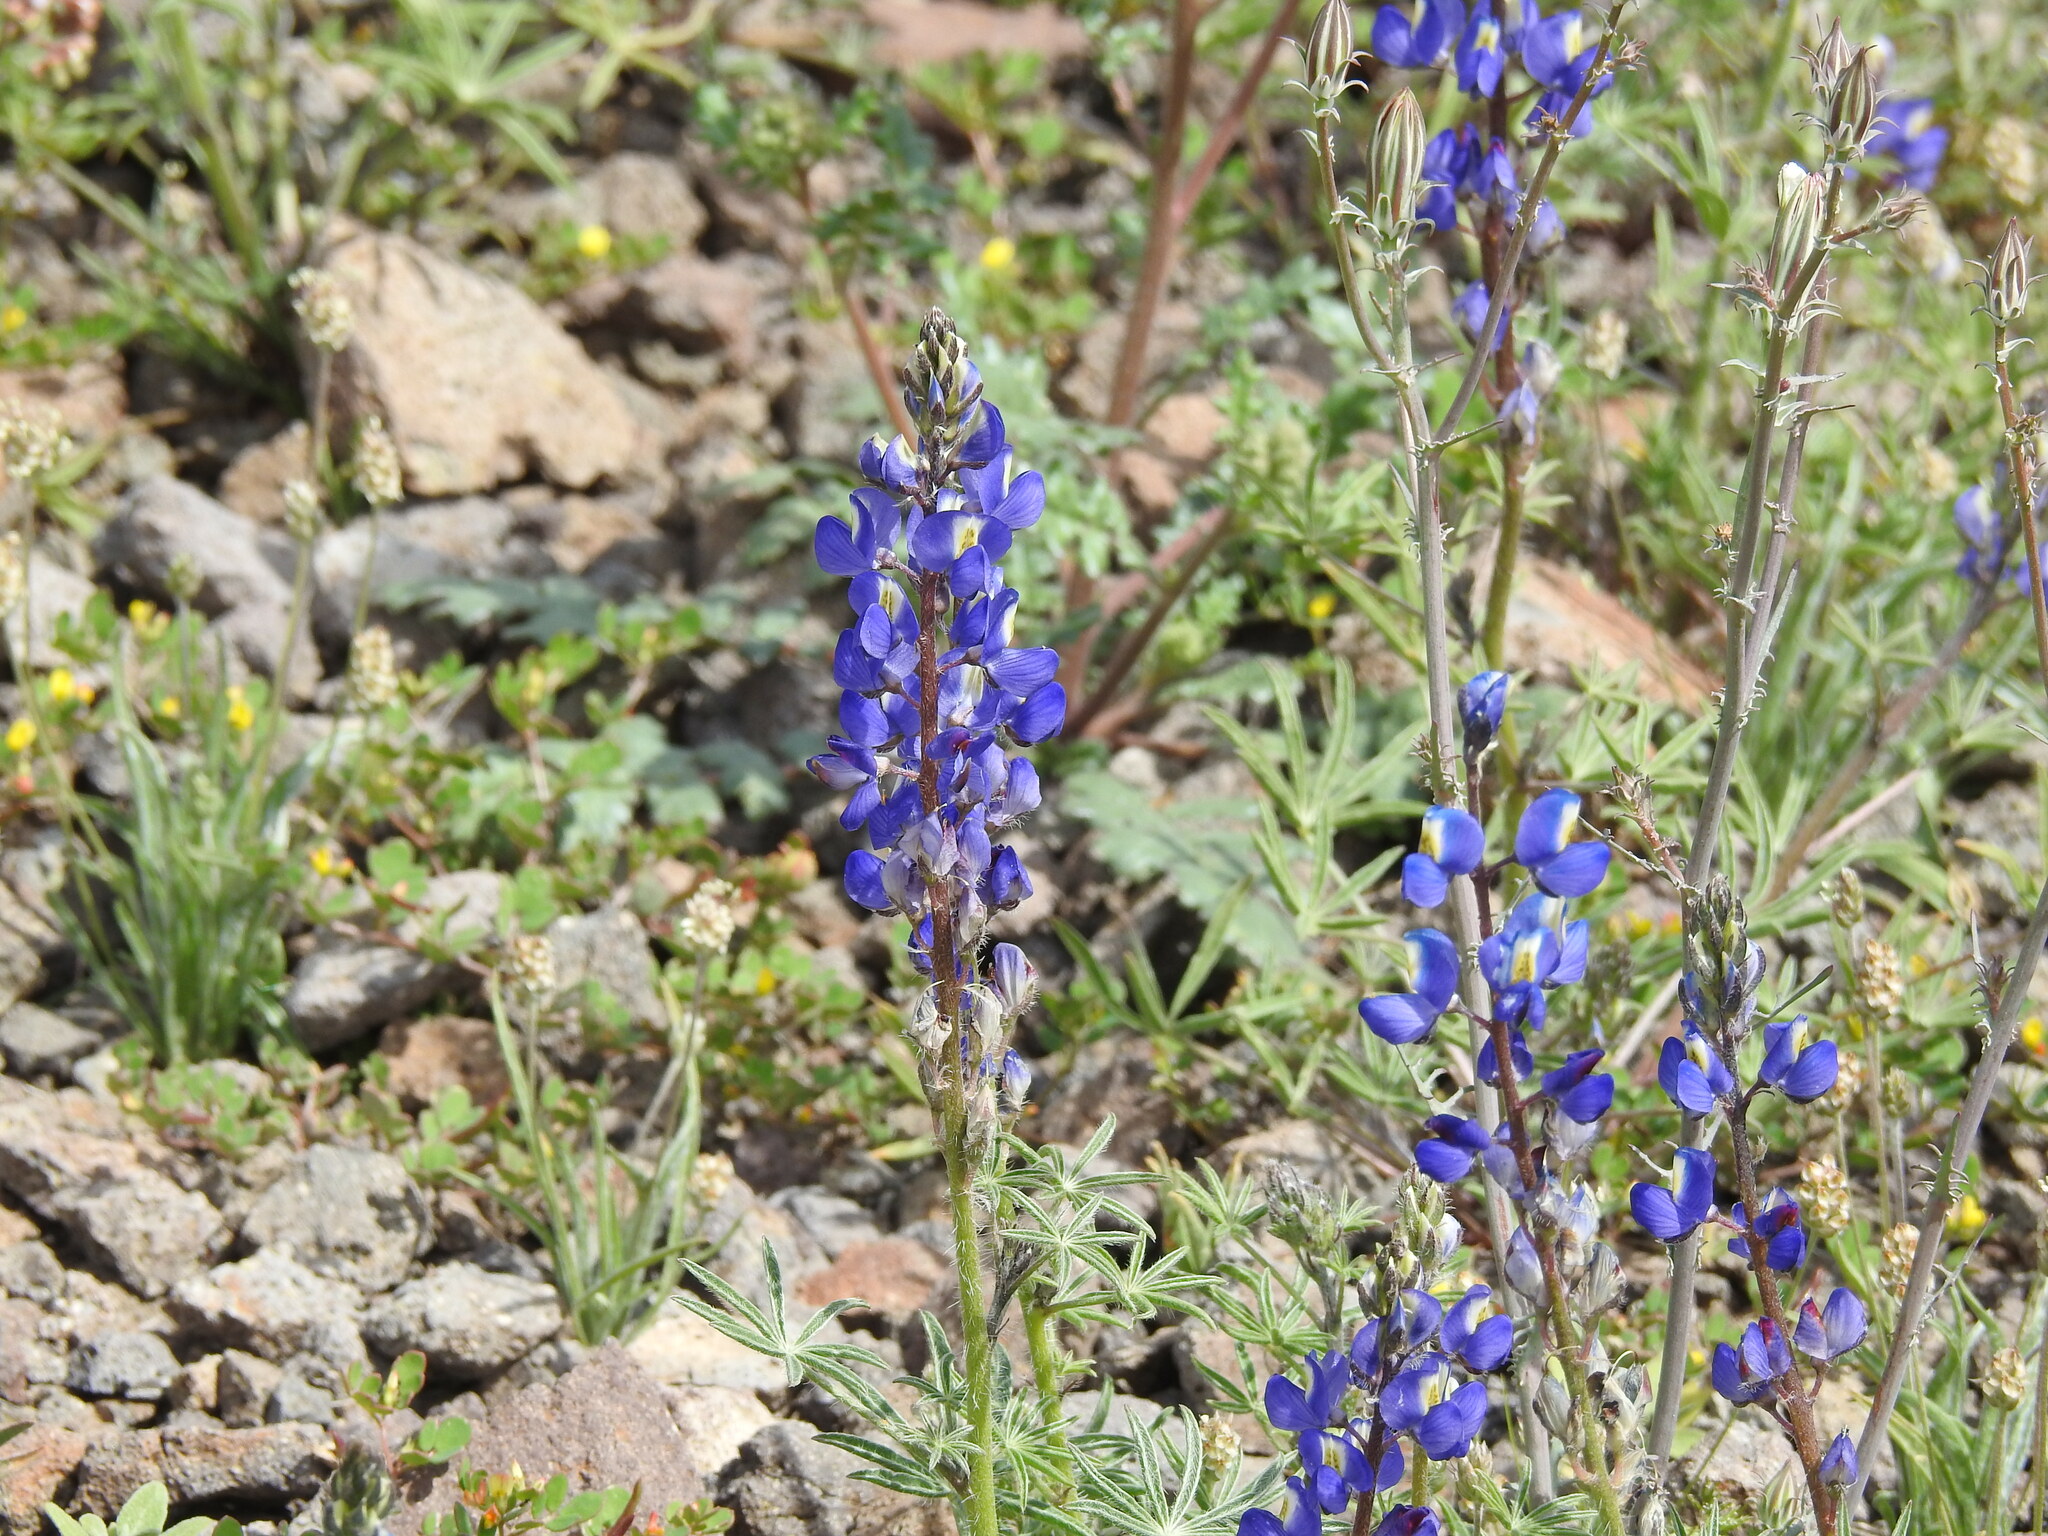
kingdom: Plantae
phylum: Tracheophyta
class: Magnoliopsida
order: Fabales
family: Fabaceae
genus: Lupinus
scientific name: Lupinus sparsiflorus
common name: Coulter's lupine
